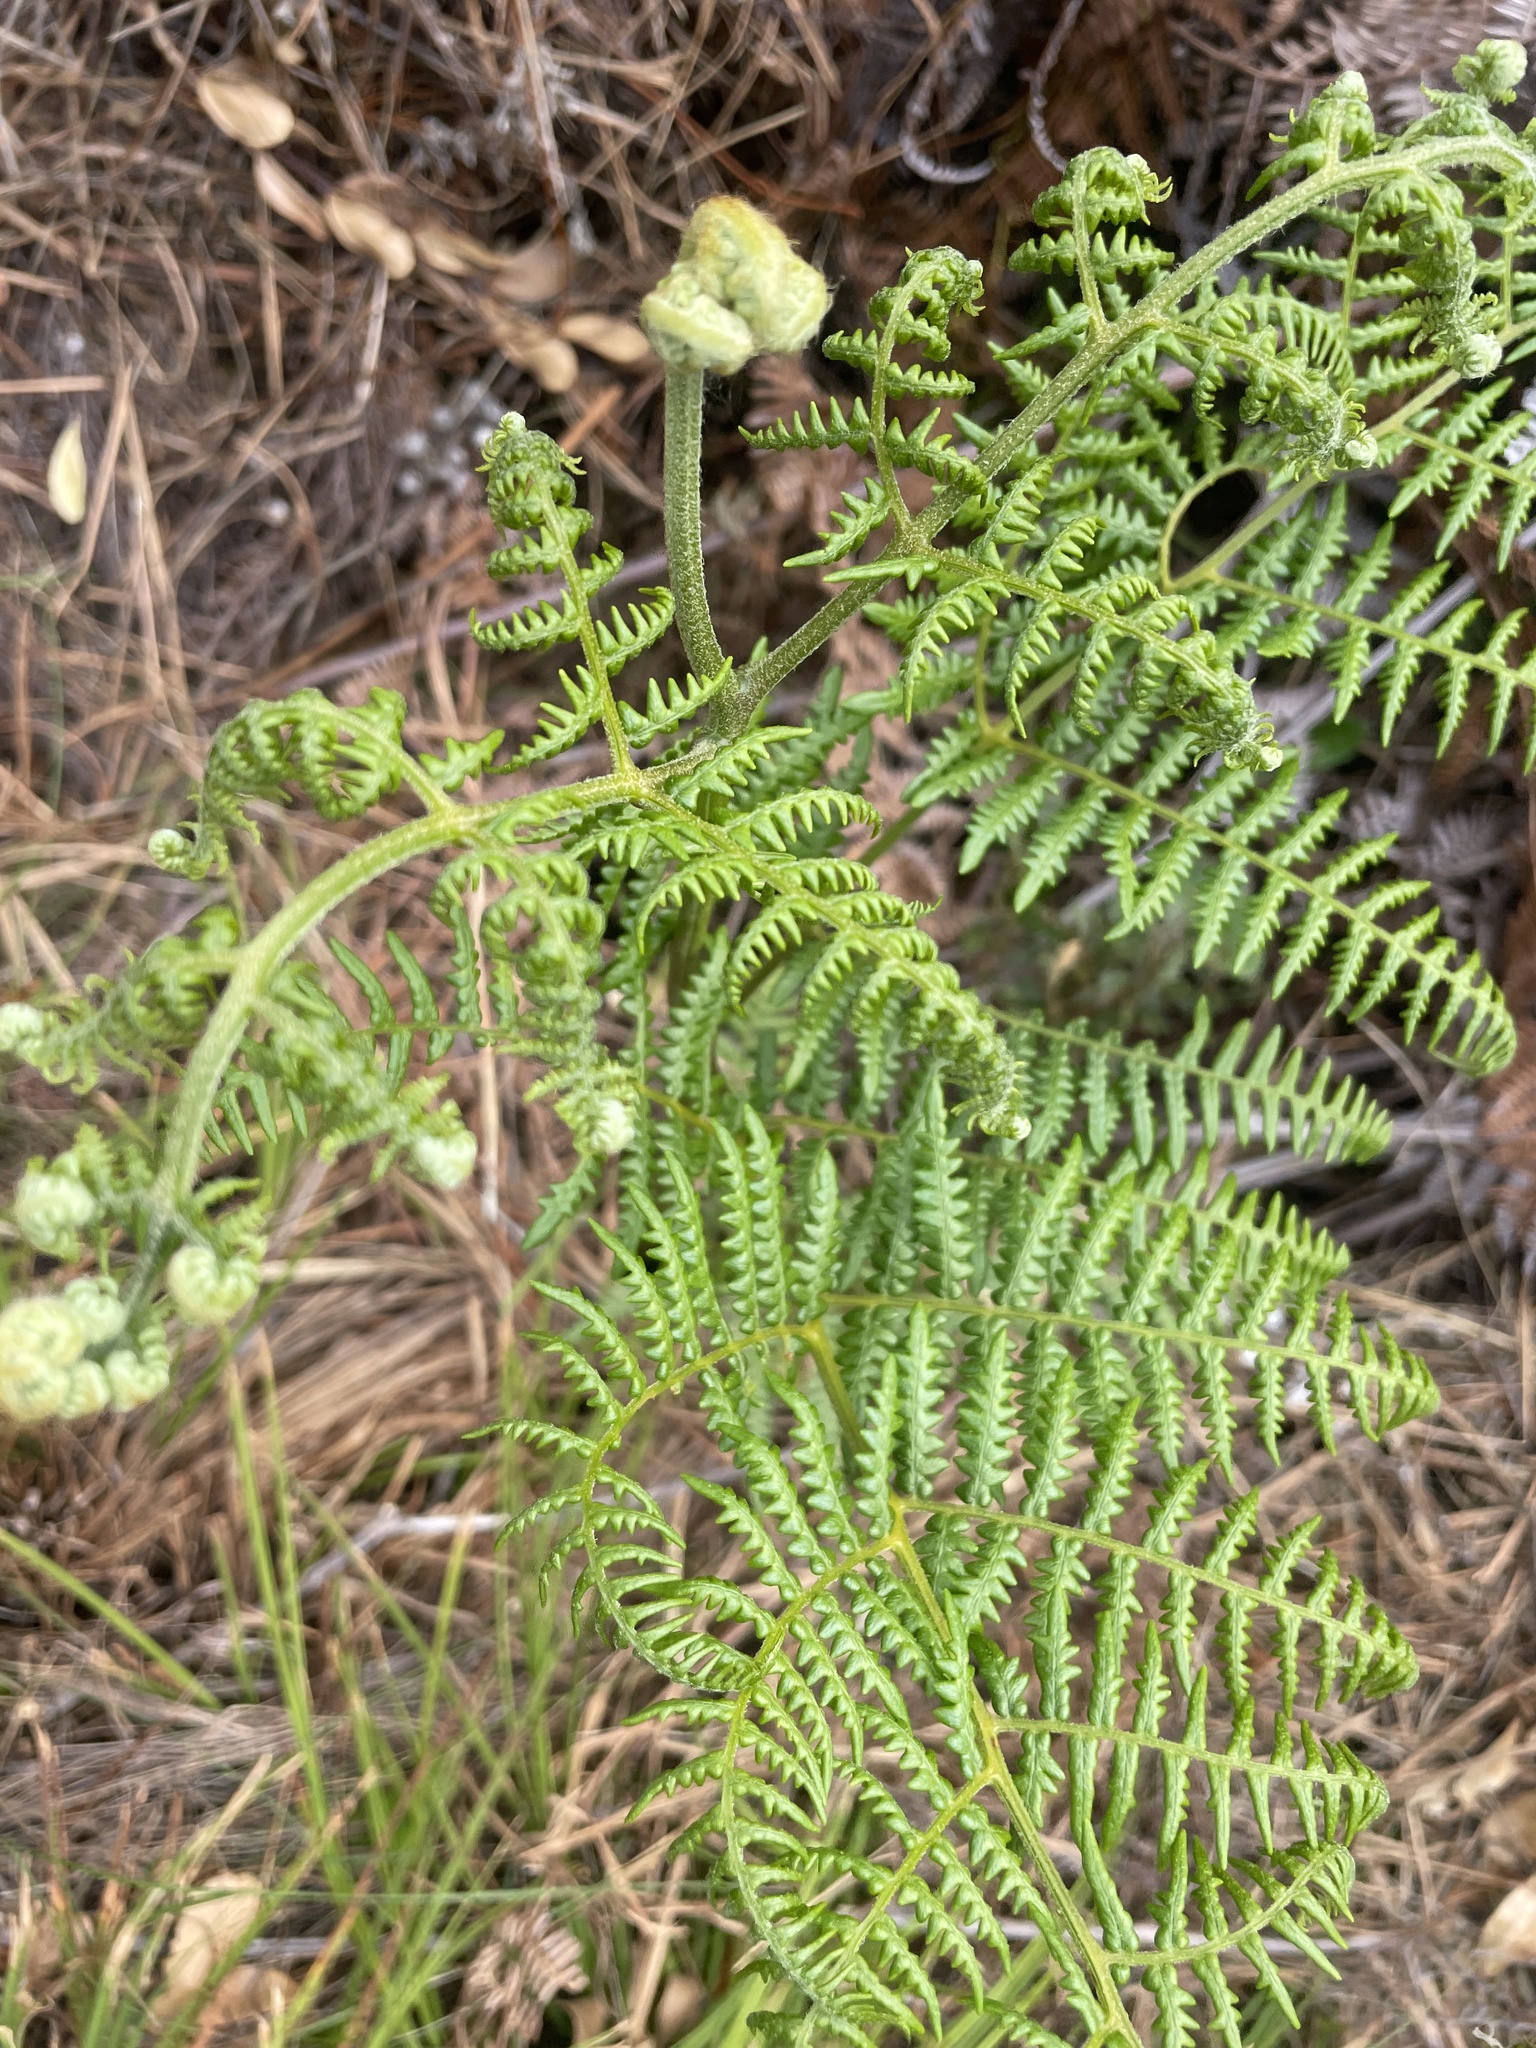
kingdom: Plantae
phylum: Tracheophyta
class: Polypodiopsida
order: Polypodiales
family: Dennstaedtiaceae
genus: Pteridium
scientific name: Pteridium aquilinum
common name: Bracken
